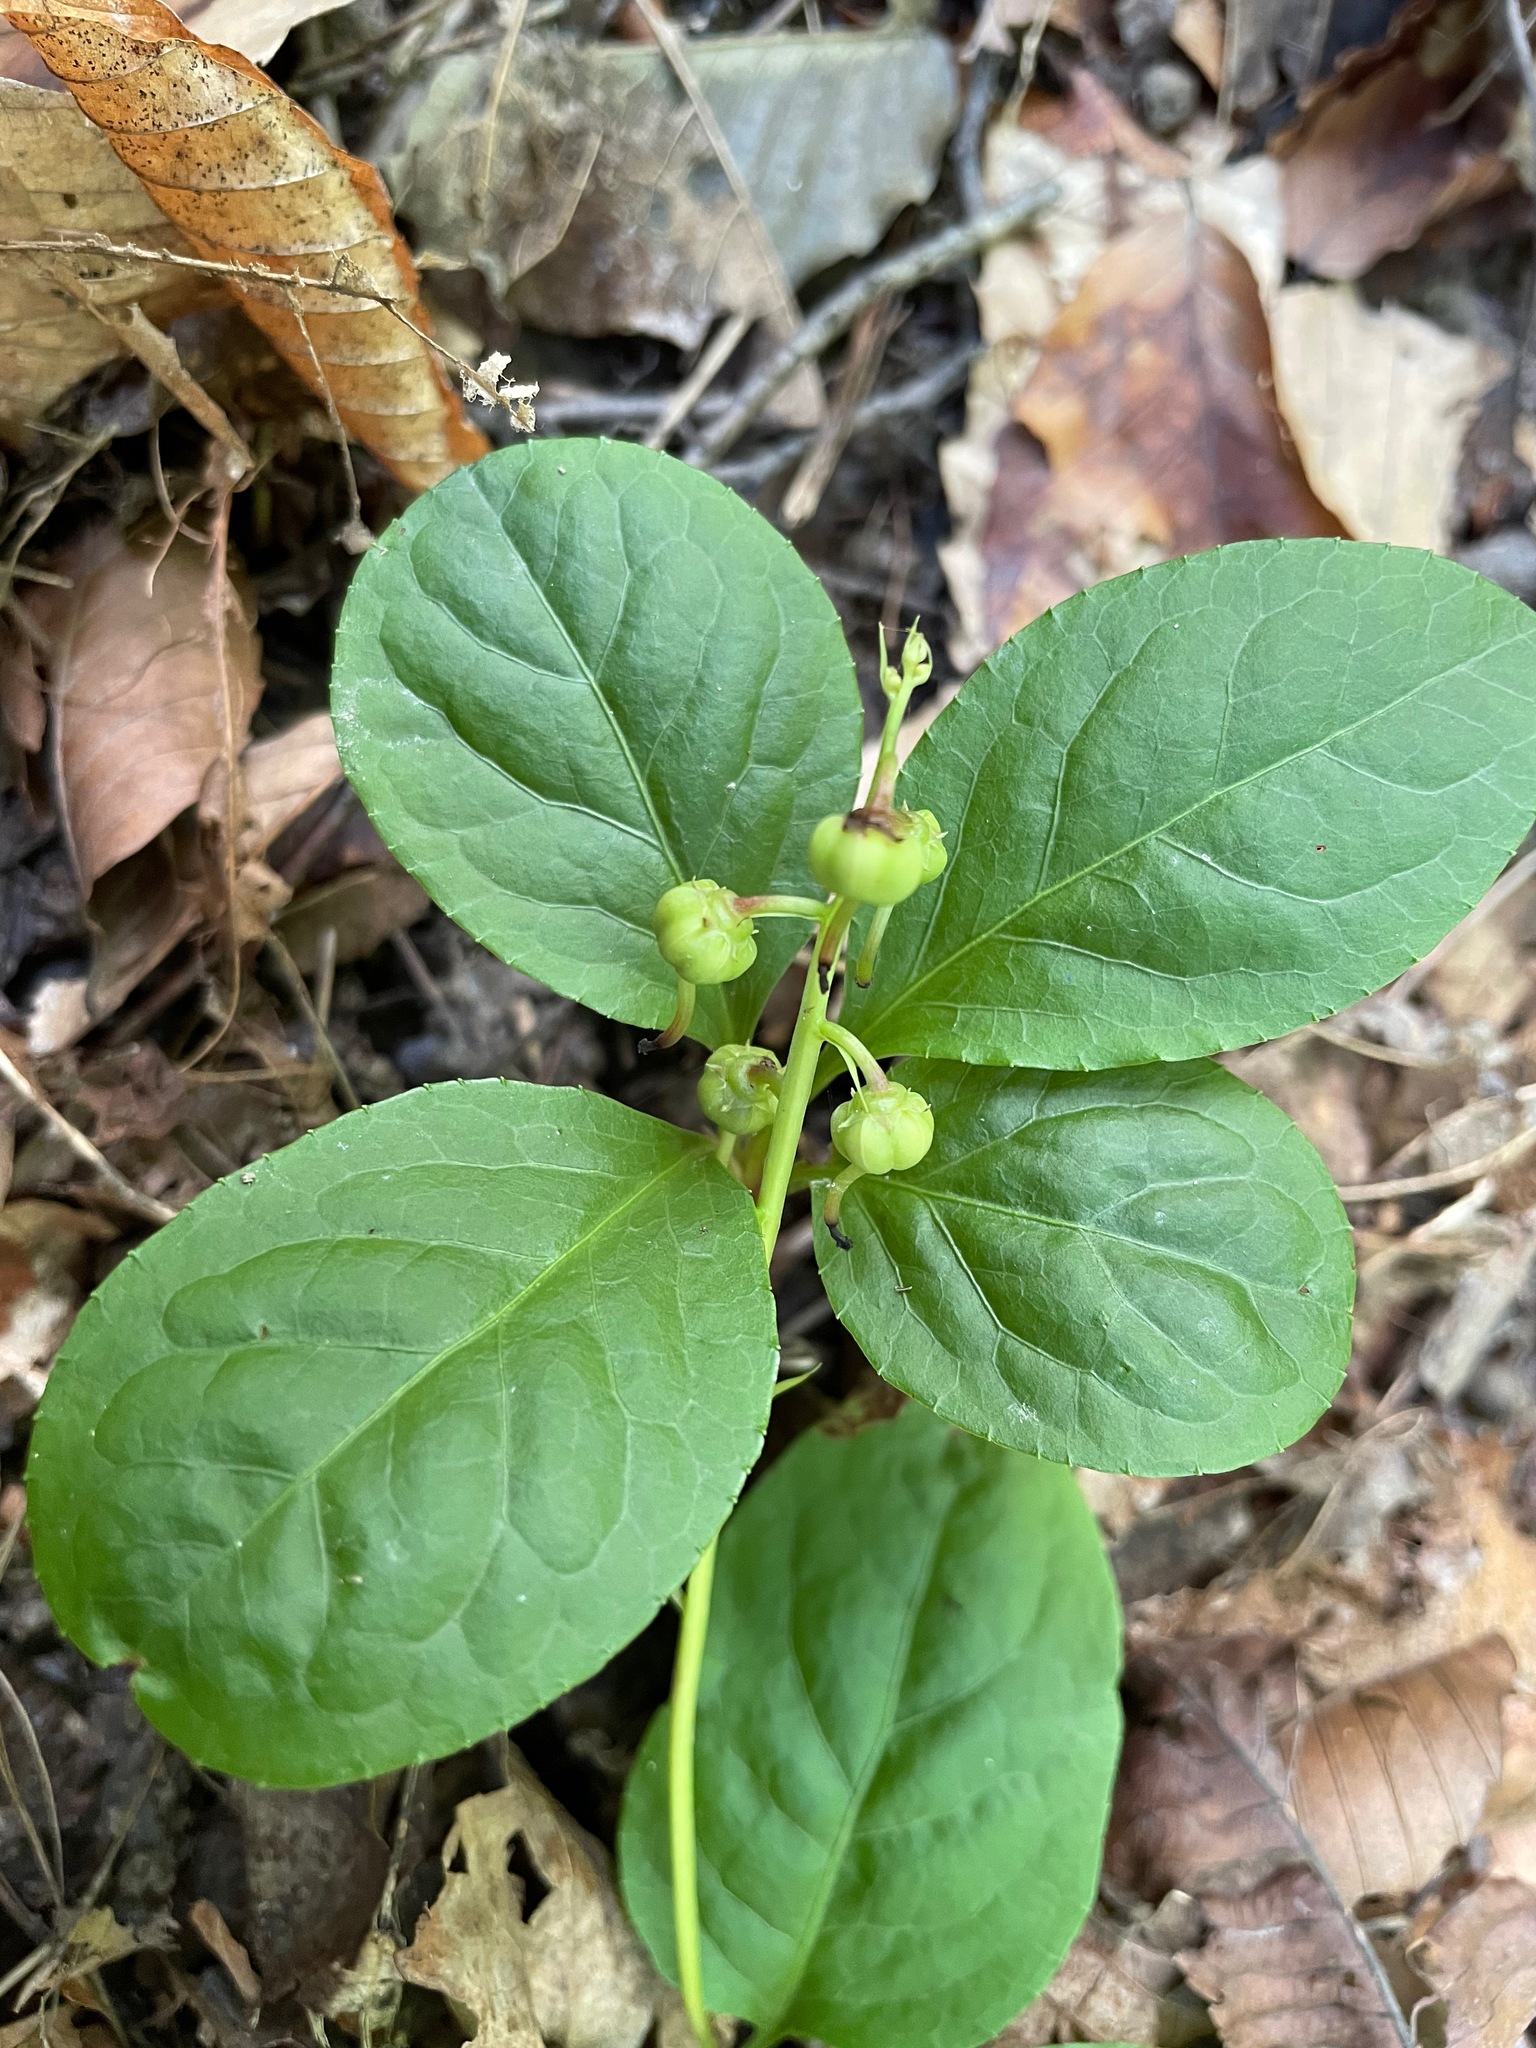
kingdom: Plantae
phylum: Tracheophyta
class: Magnoliopsida
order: Ericales
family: Ericaceae
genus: Pyrola
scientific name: Pyrola elliptica
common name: Shinleaf
